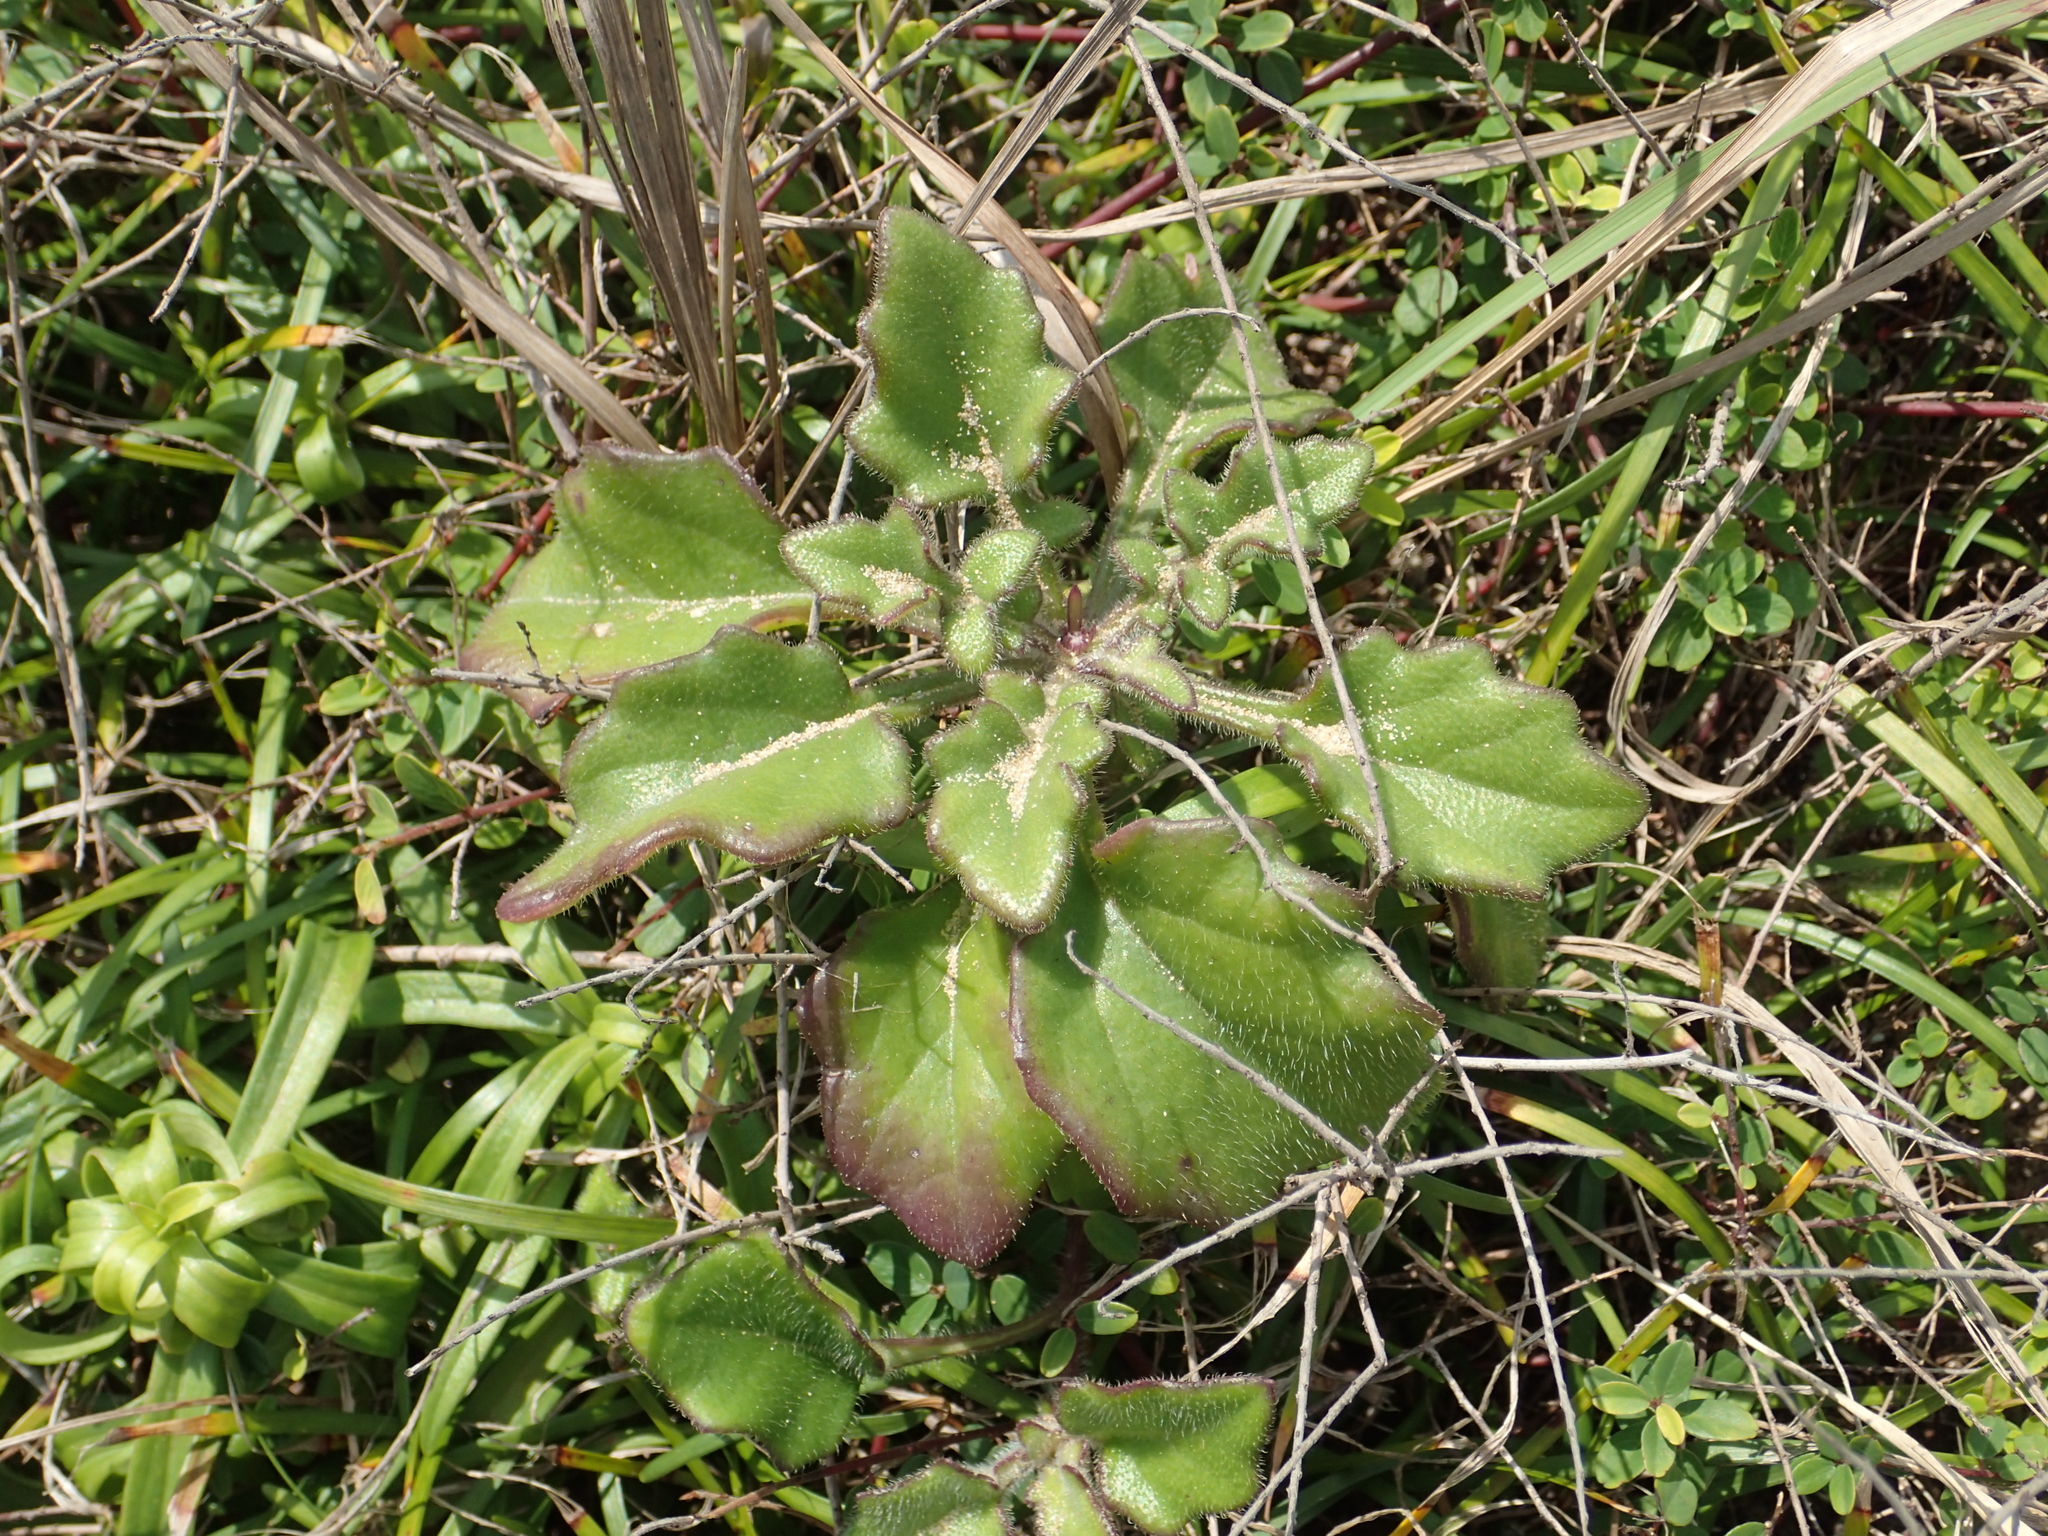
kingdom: Plantae
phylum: Tracheophyta
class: Magnoliopsida
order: Asterales
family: Asteraceae
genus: Gynura
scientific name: Gynura formosana
